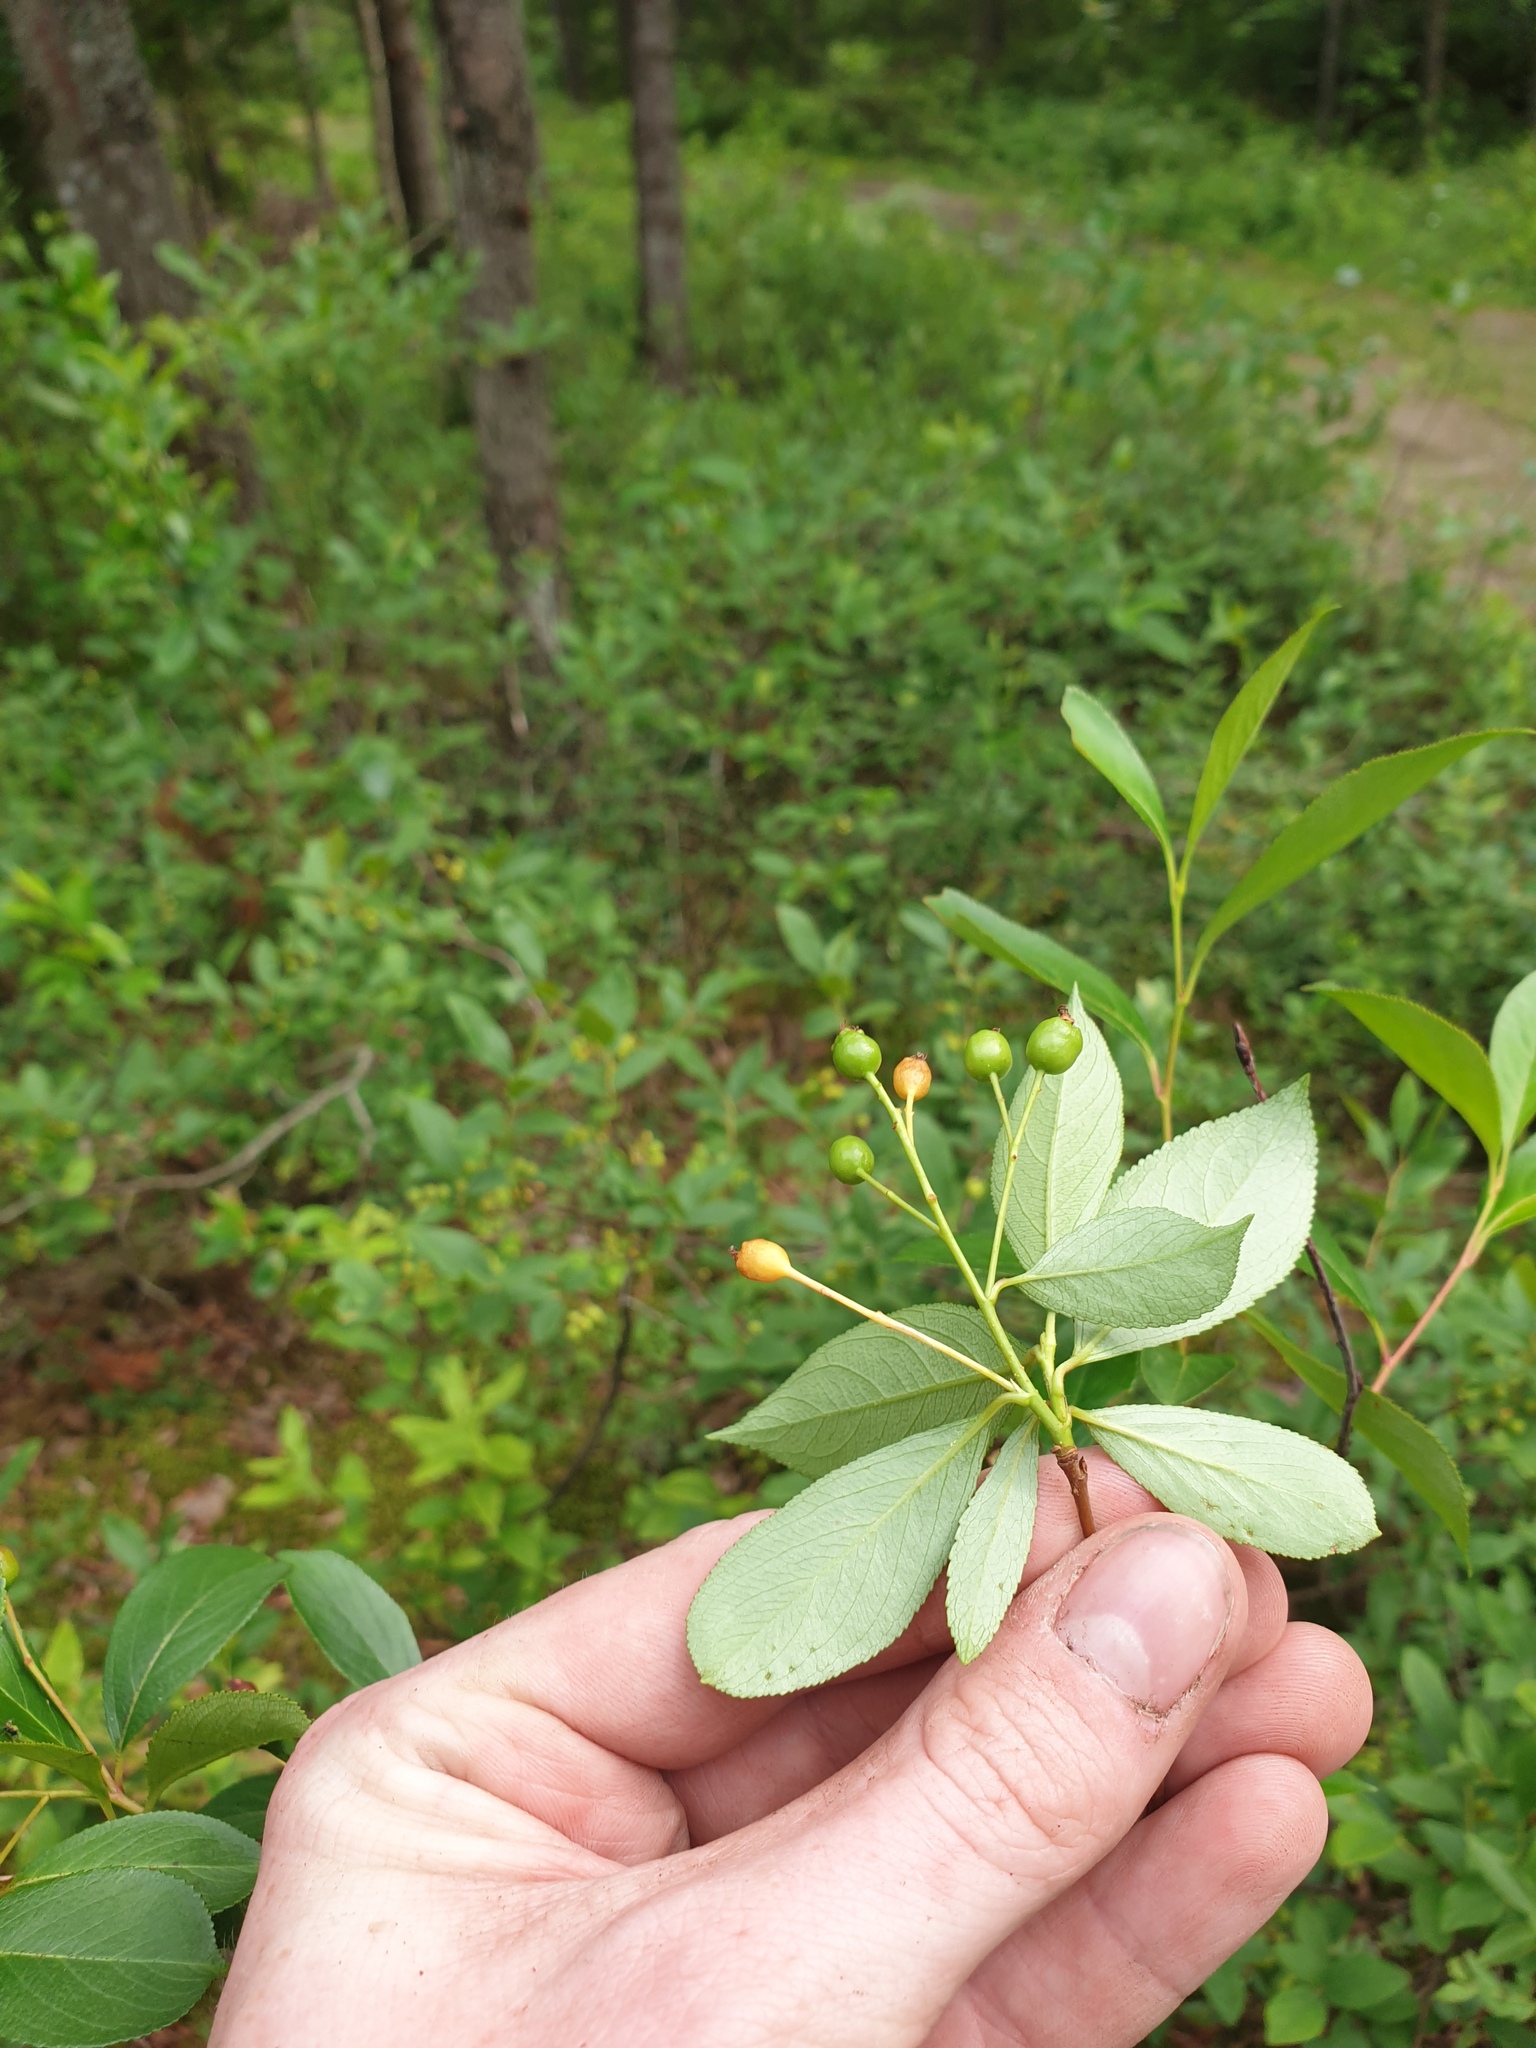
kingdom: Plantae
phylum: Tracheophyta
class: Magnoliopsida
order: Rosales
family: Rosaceae
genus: Aronia
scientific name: Aronia melanocarpa
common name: Black chokeberry
